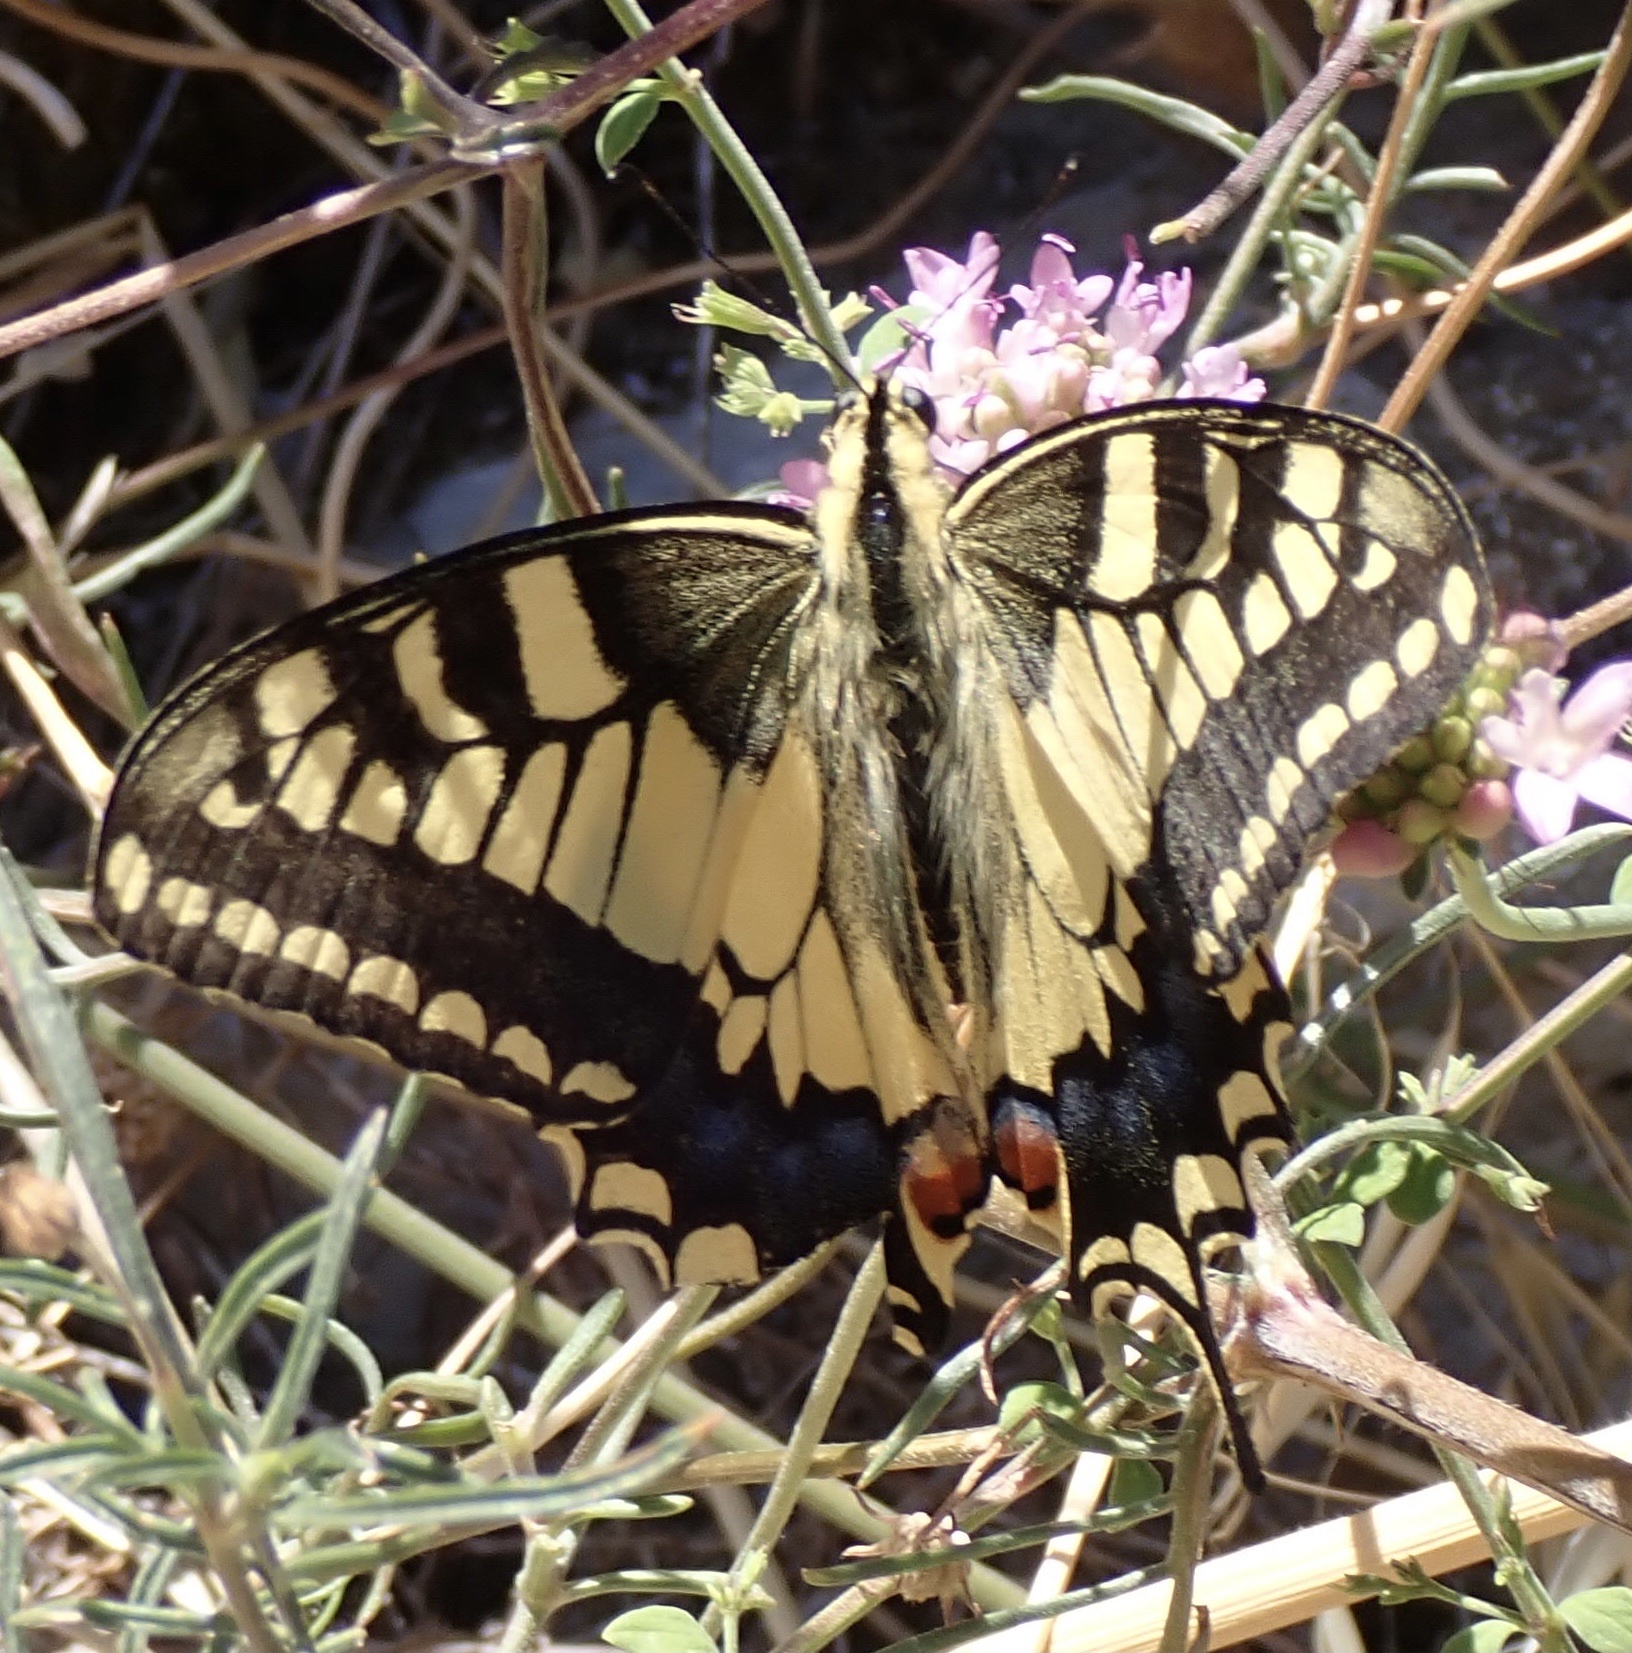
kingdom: Animalia
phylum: Arthropoda
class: Insecta
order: Lepidoptera
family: Papilionidae
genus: Papilio
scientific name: Papilio machaon
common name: Swallowtail
